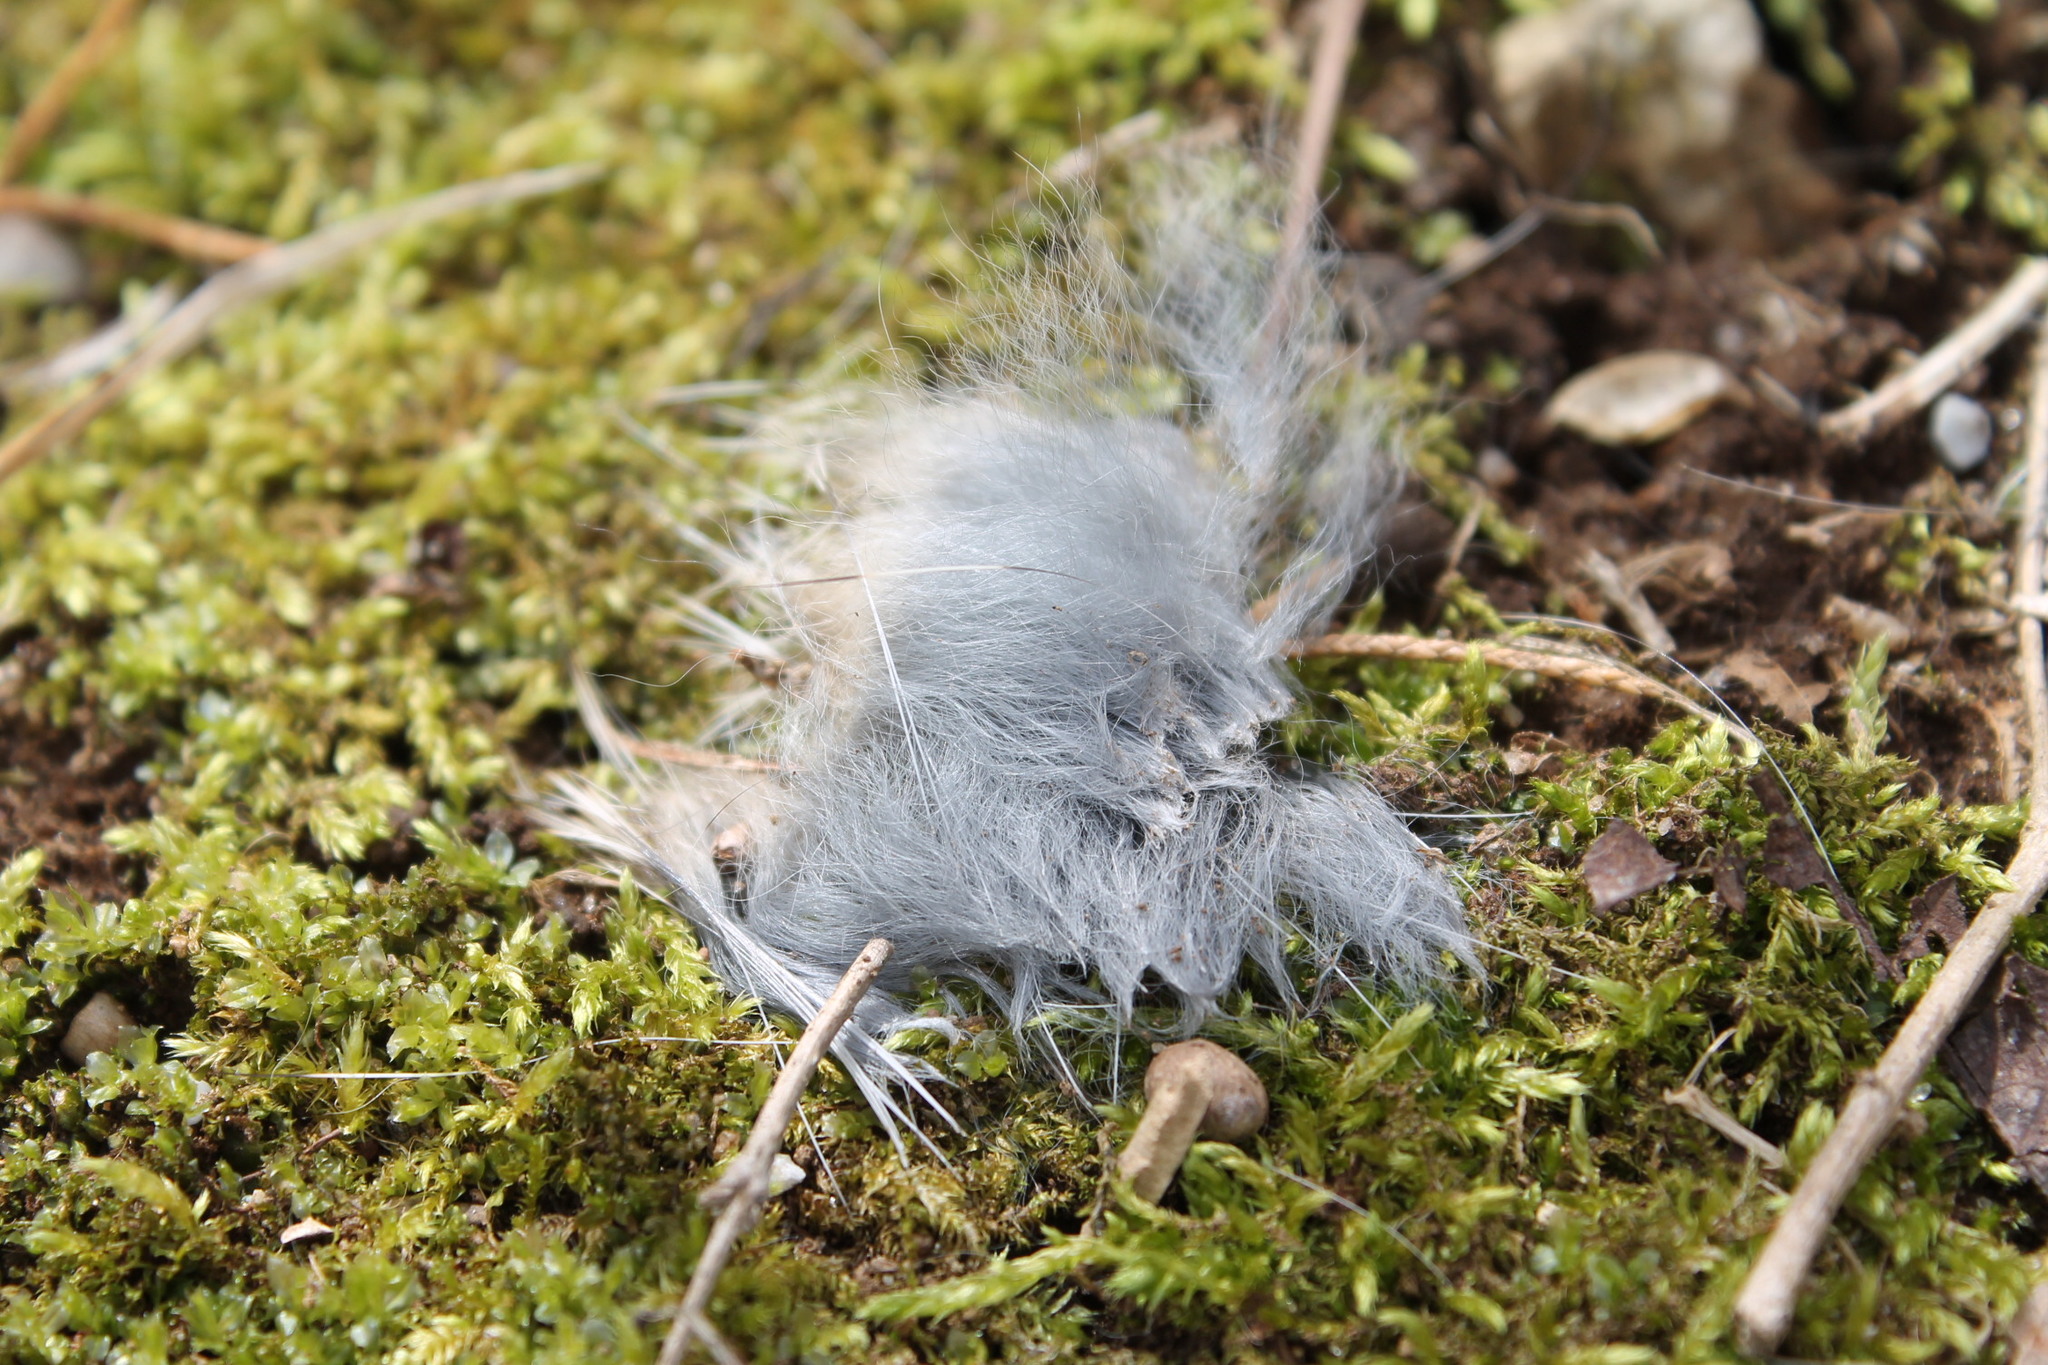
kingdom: Animalia
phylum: Chordata
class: Mammalia
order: Lagomorpha
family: Leporidae
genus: Sylvilagus
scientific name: Sylvilagus floridanus
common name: Eastern cottontail
